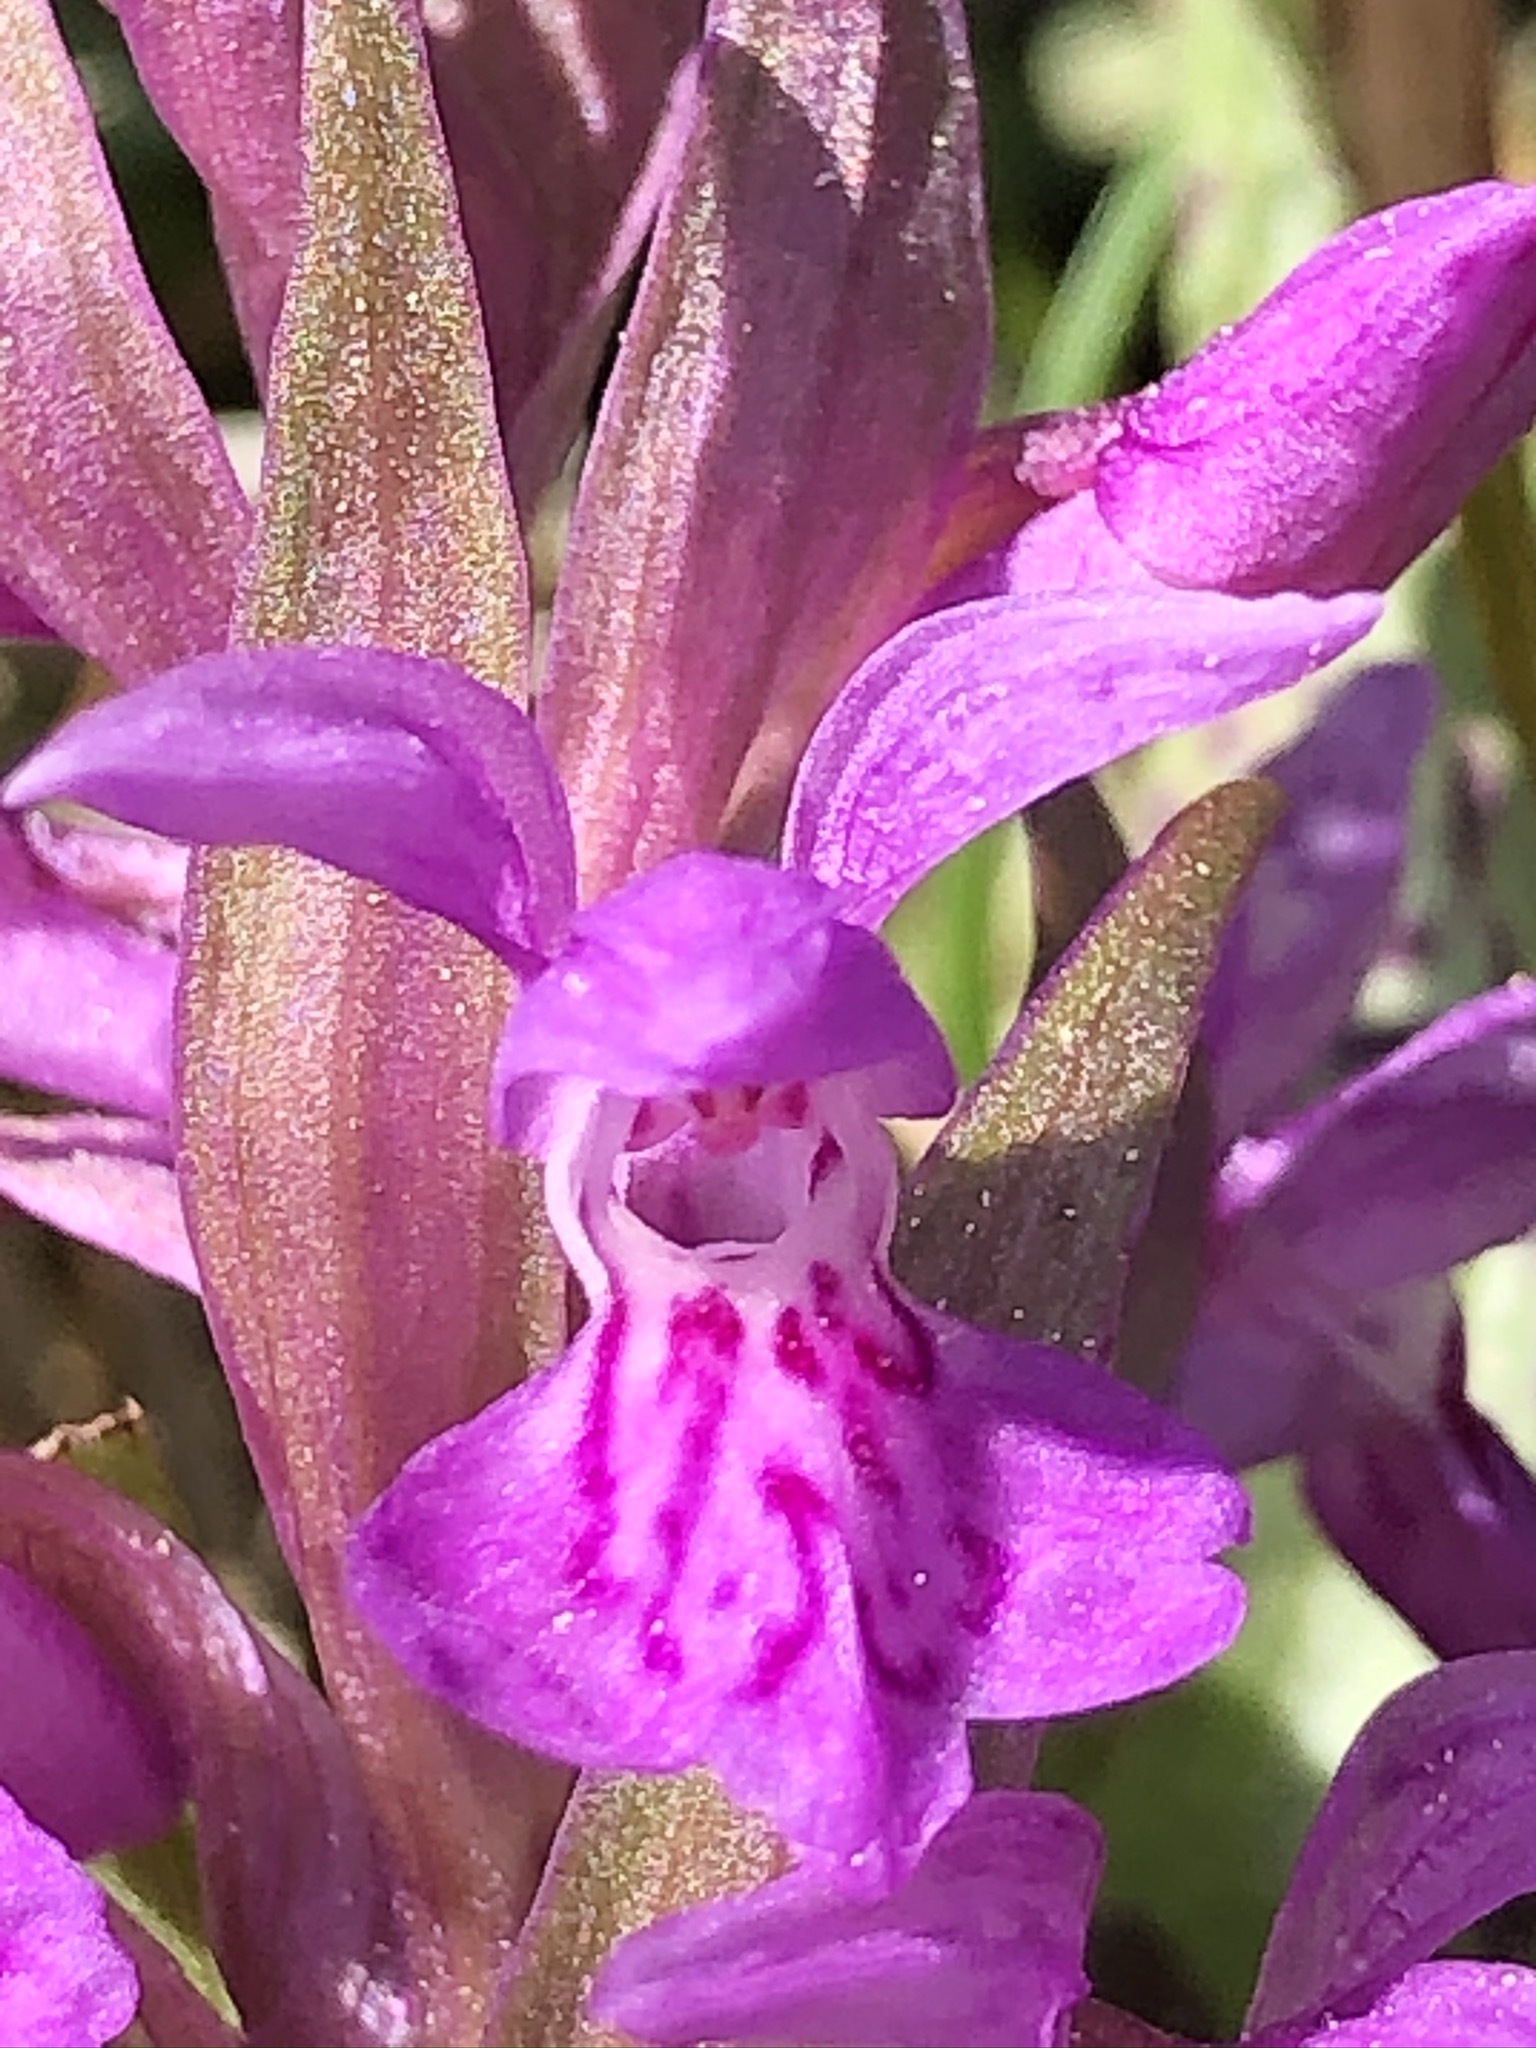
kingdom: Plantae
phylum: Tracheophyta
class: Liliopsida
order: Asparagales
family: Orchidaceae
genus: Dactylorhiza
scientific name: Dactylorhiza majalis
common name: Marsh orchid
